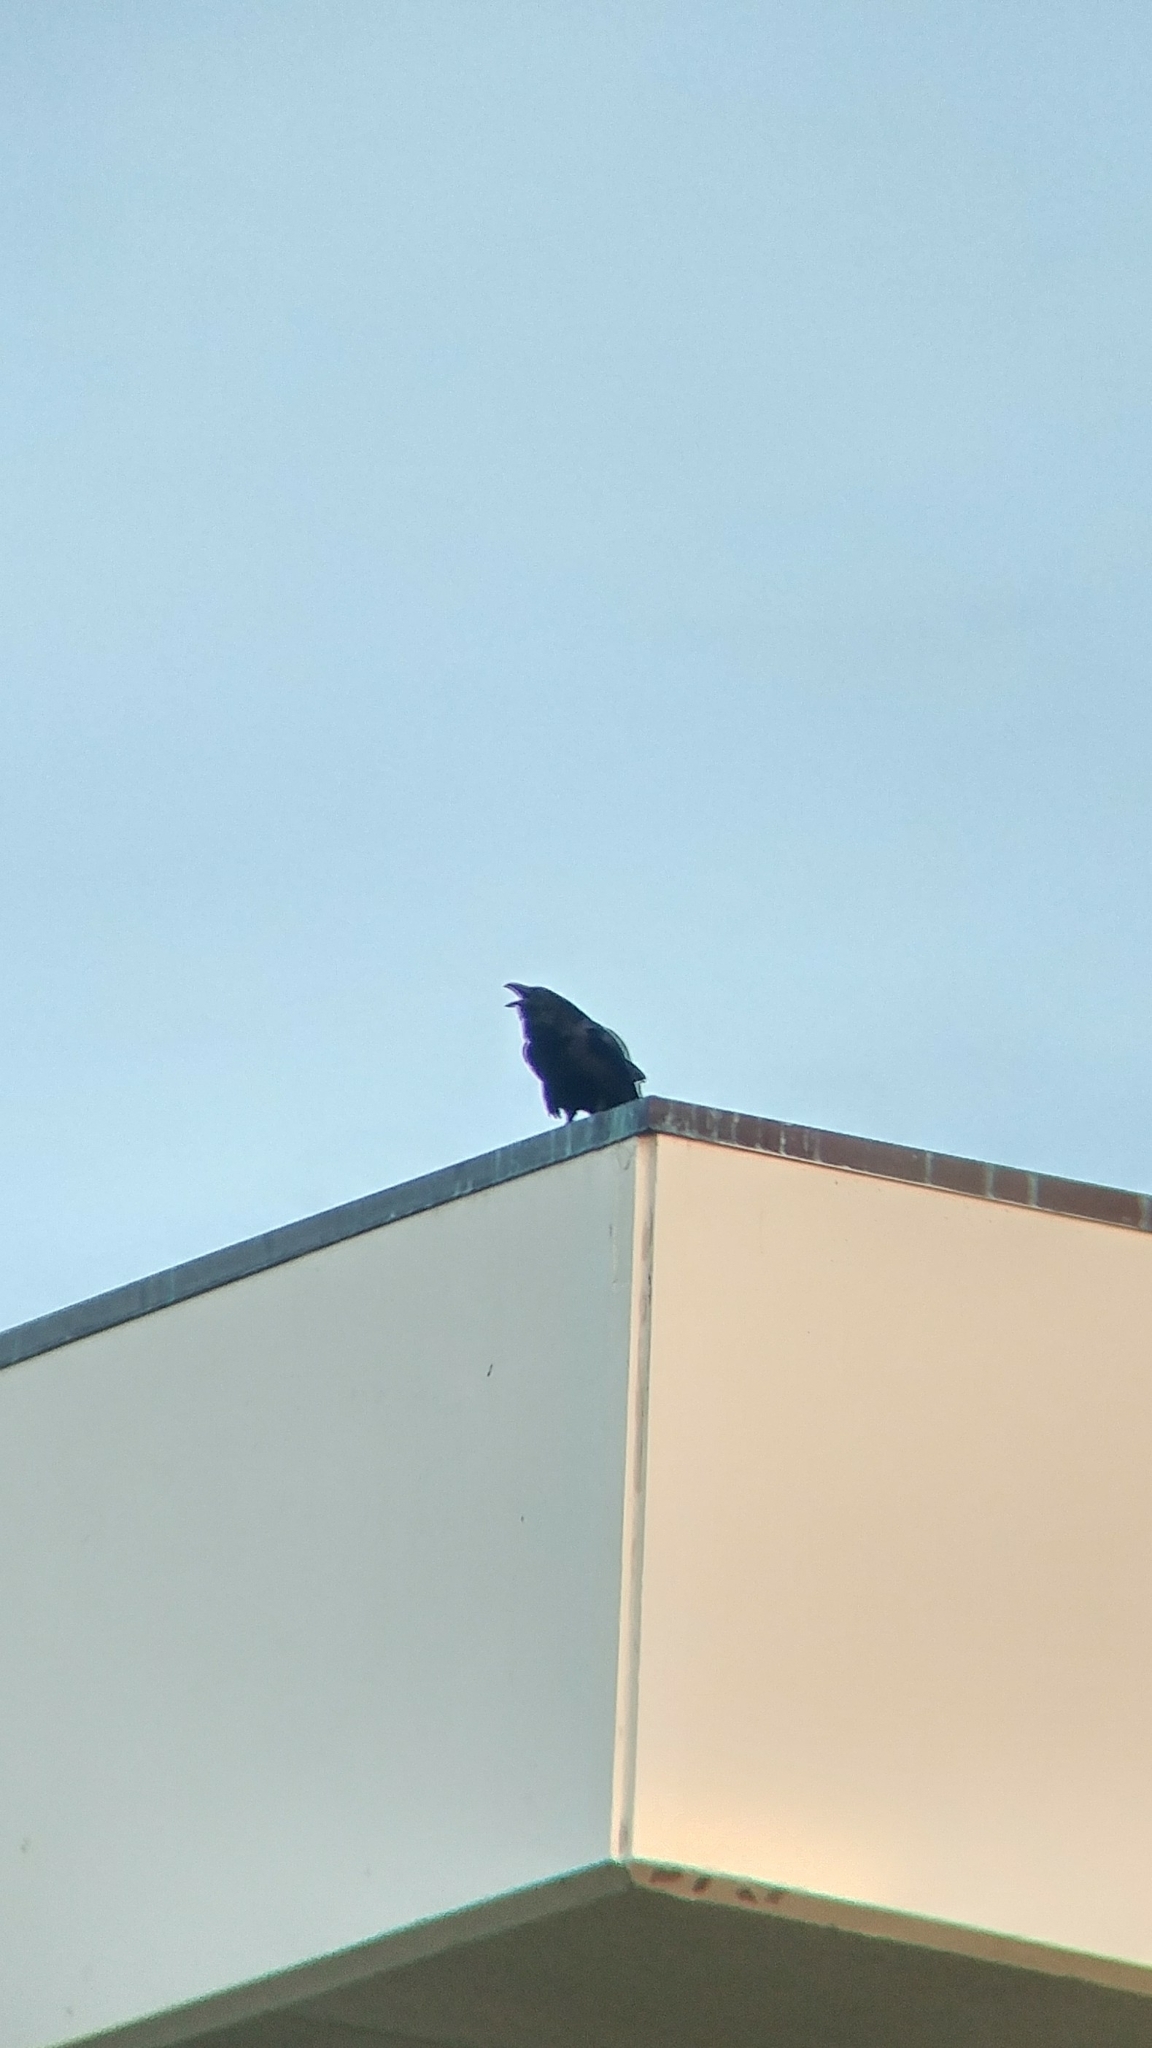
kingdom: Animalia
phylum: Chordata
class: Aves
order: Passeriformes
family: Corvidae
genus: Corvus
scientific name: Corvus corax
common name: Common raven
